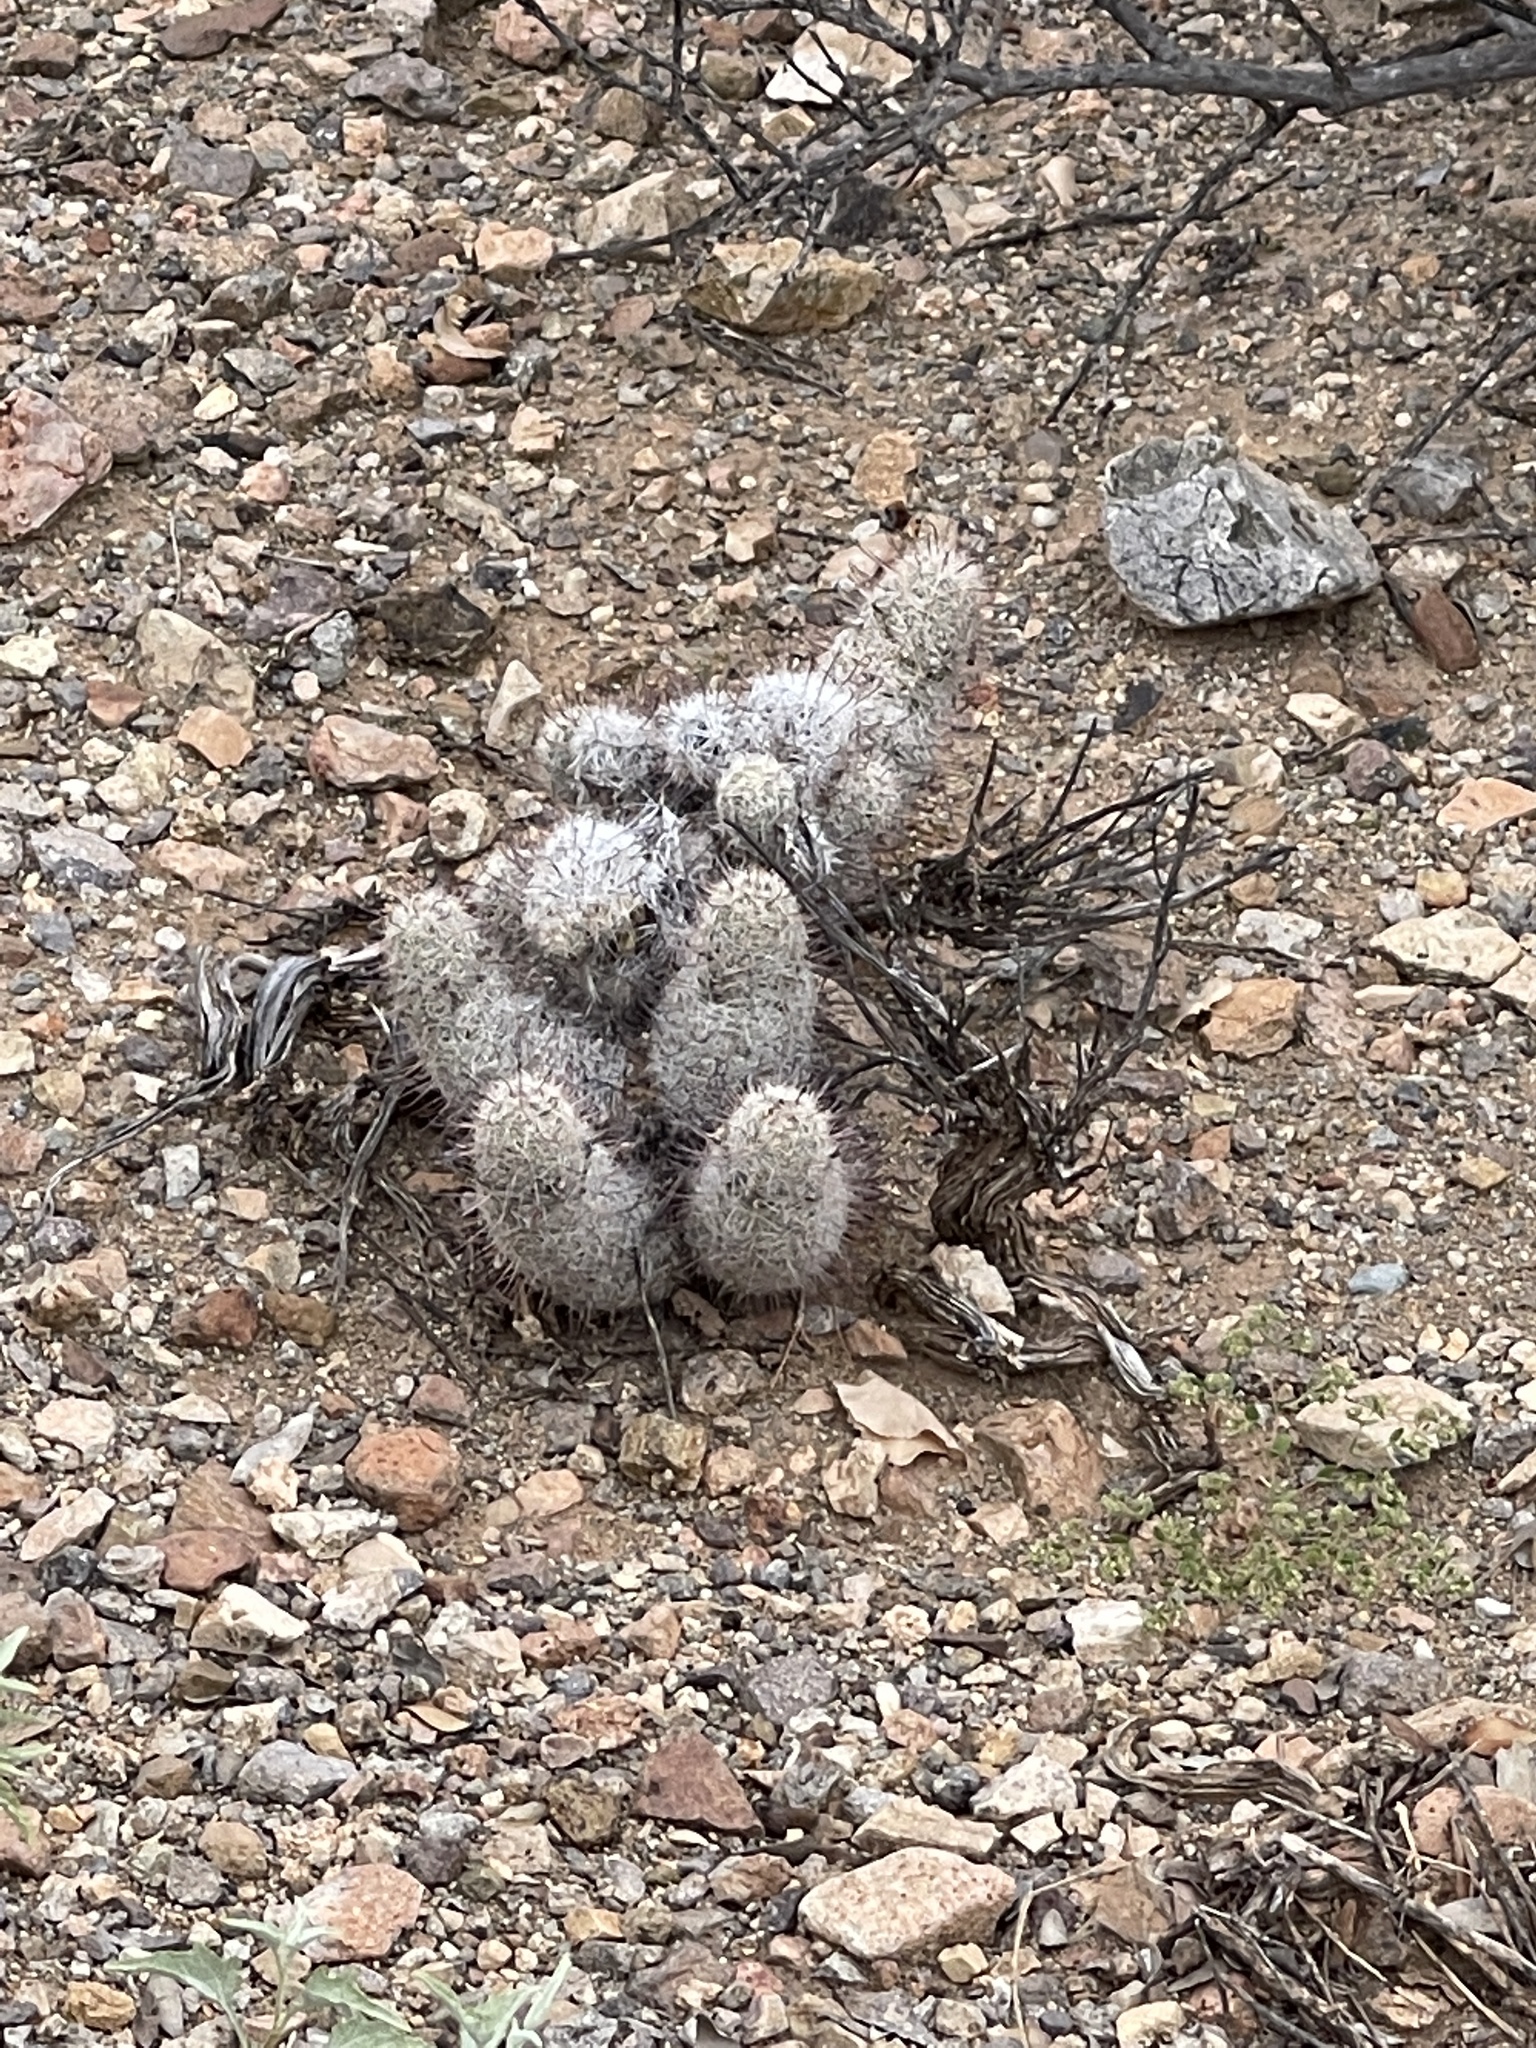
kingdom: Plantae
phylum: Tracheophyta
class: Magnoliopsida
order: Caryophyllales
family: Cactaceae
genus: Cochemiea
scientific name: Cochemiea grahamii
